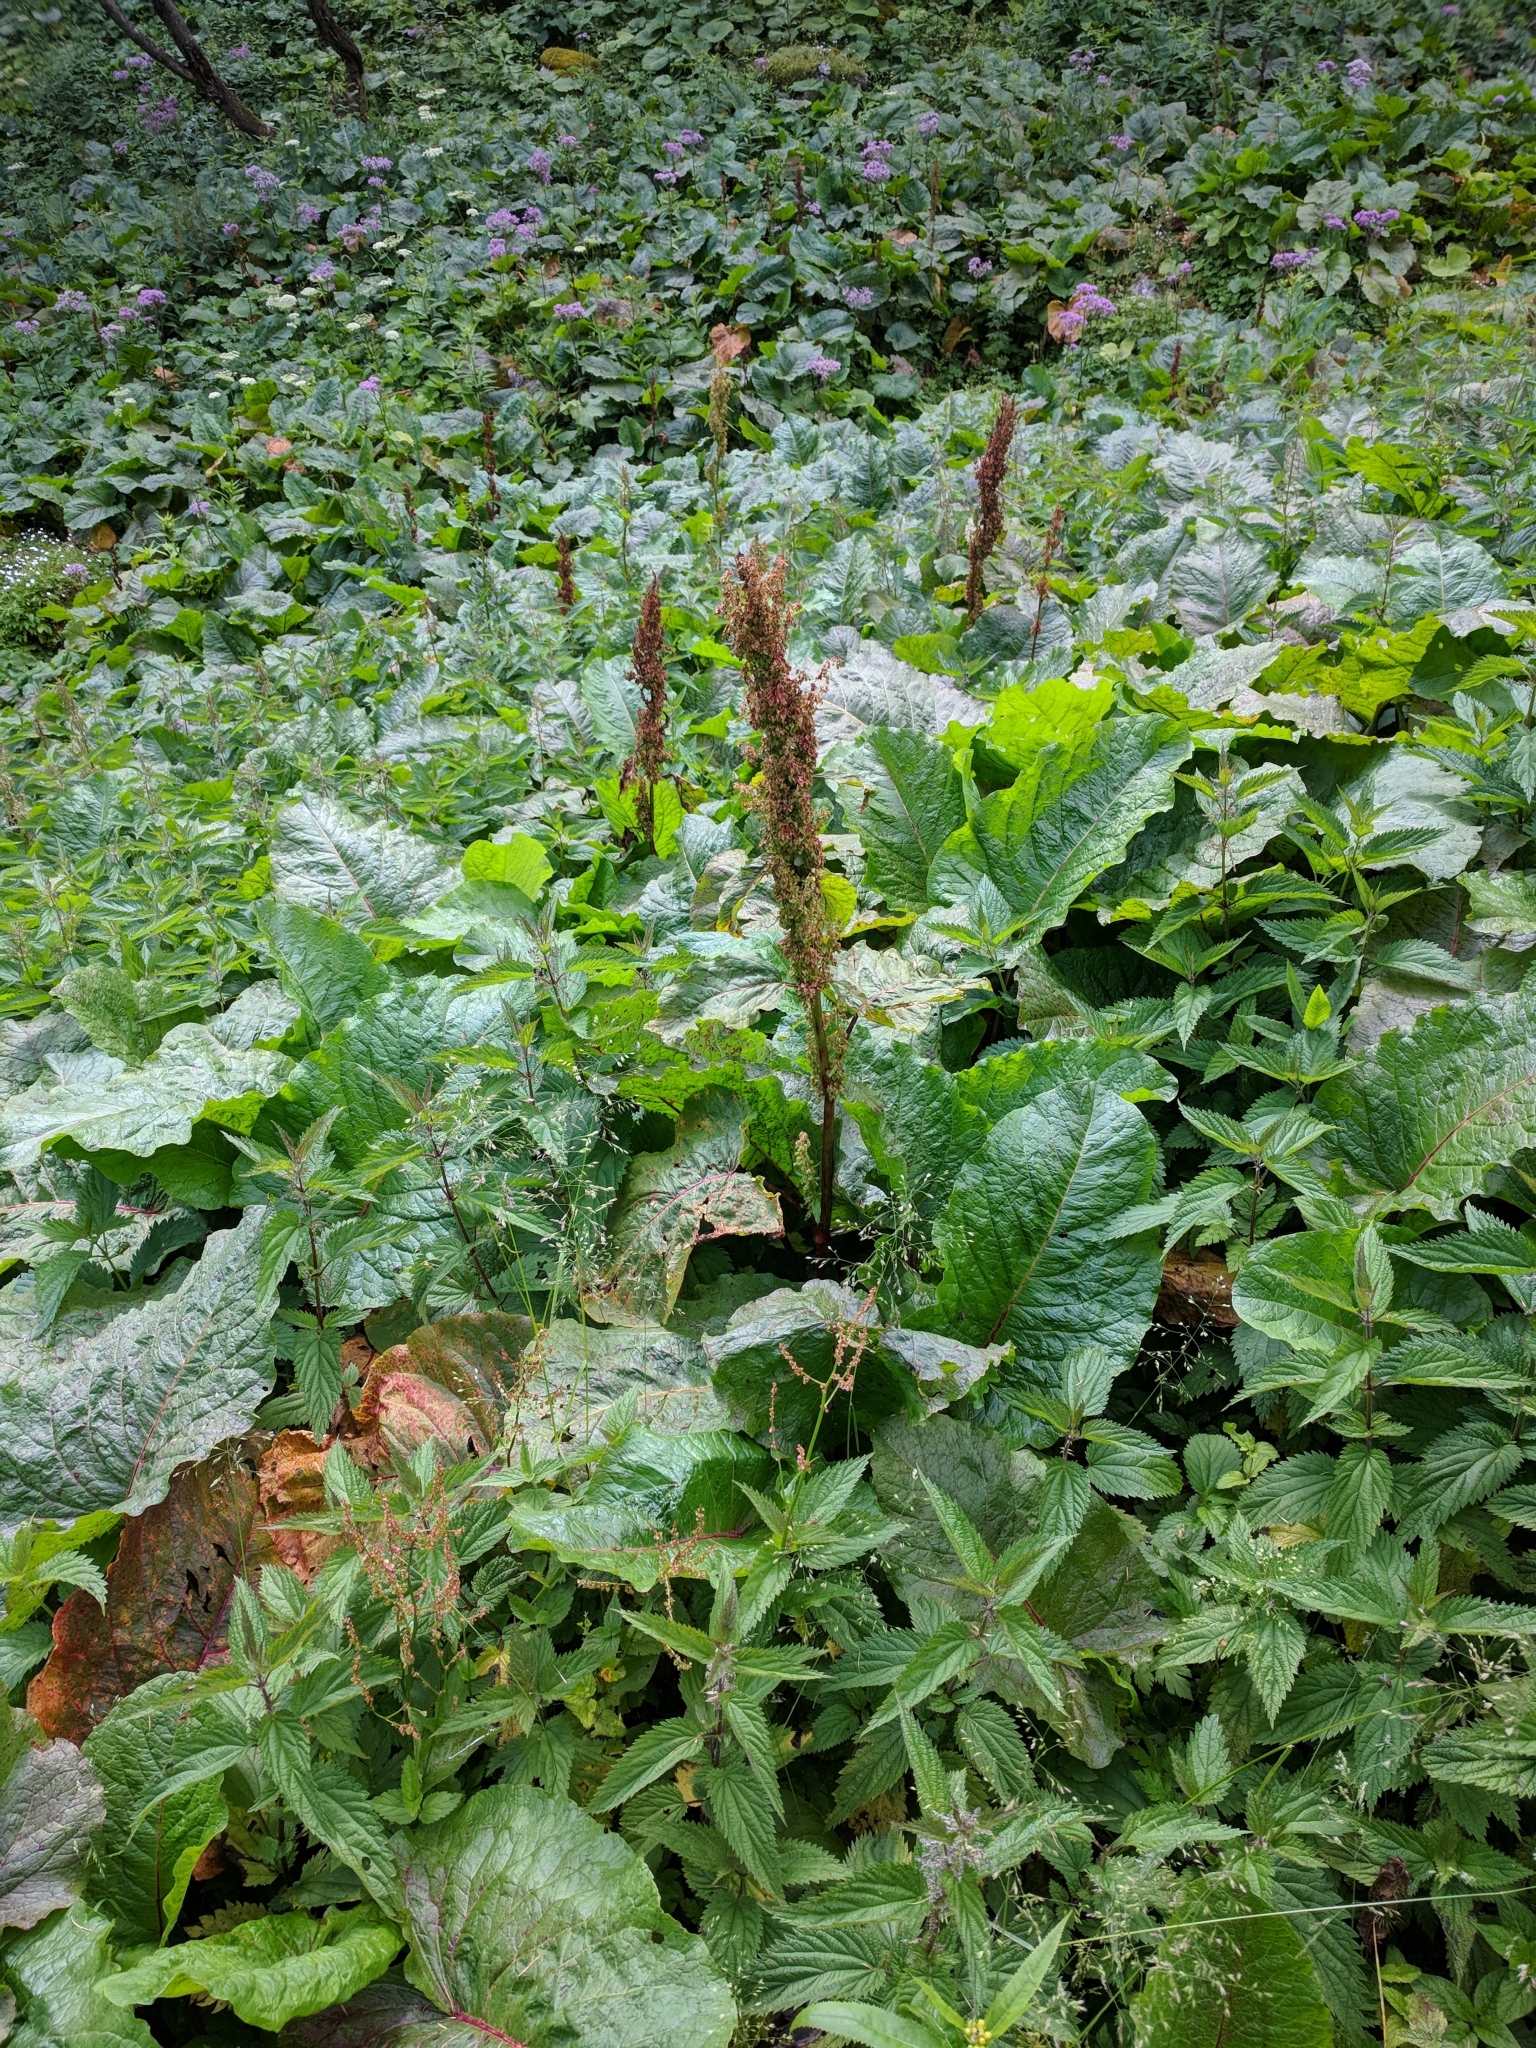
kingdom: Plantae
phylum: Tracheophyta
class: Magnoliopsida
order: Caryophyllales
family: Polygonaceae
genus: Rumex
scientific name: Rumex alpinus
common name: Alpine dock
